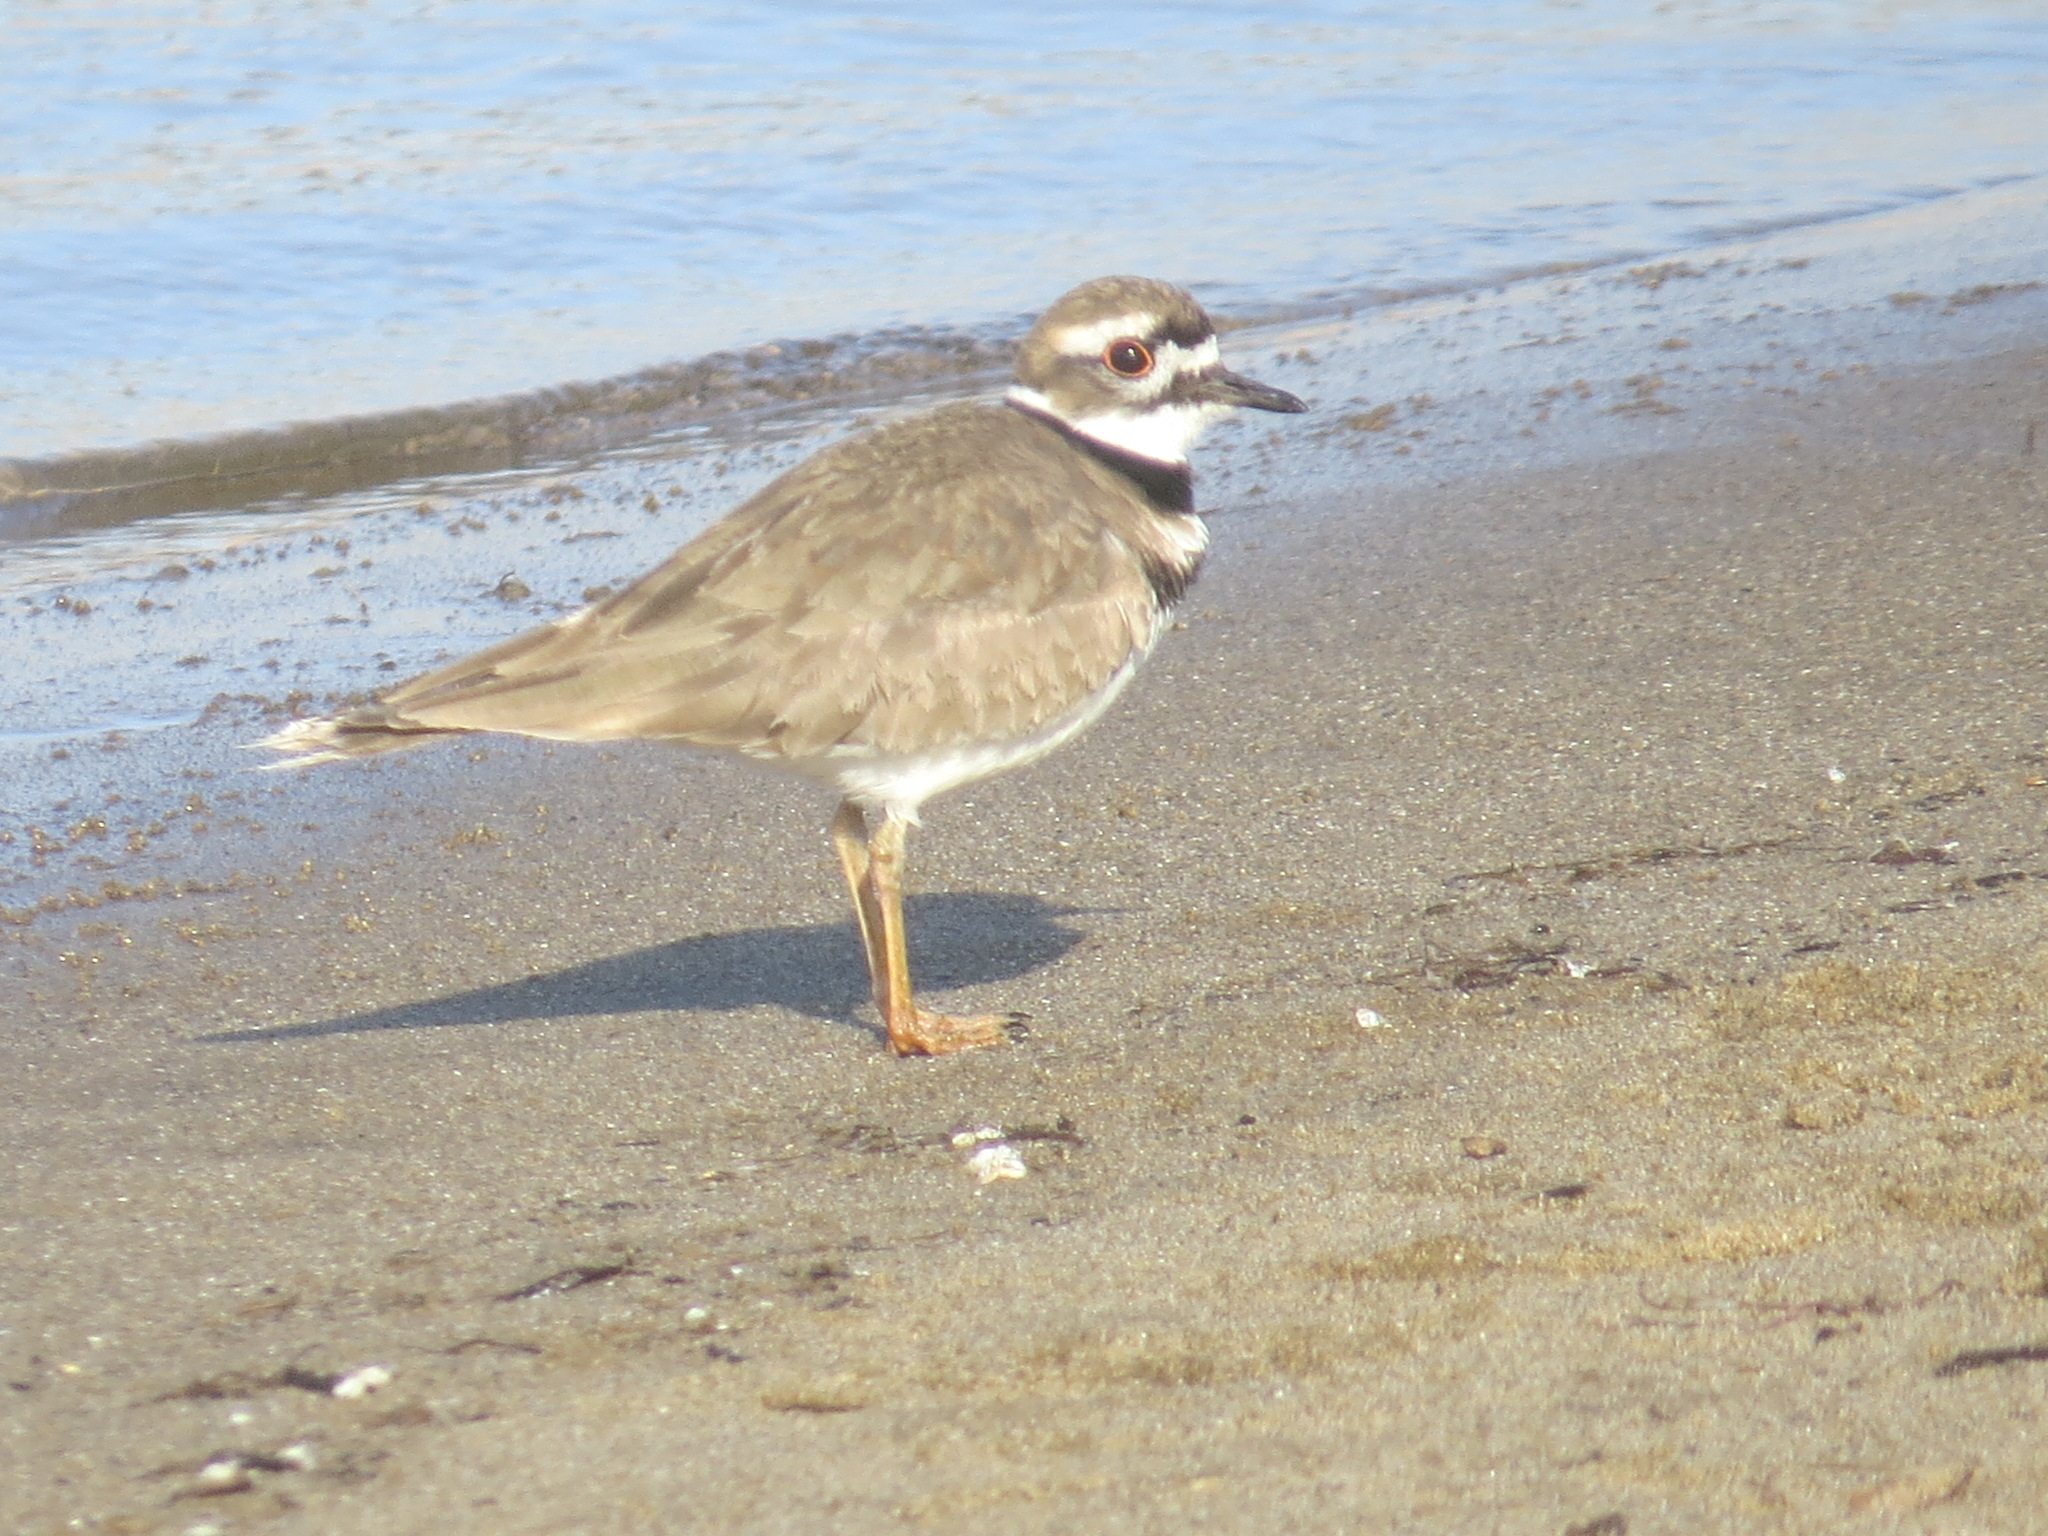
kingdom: Animalia
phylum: Chordata
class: Aves
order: Charadriiformes
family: Charadriidae
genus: Charadrius
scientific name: Charadrius vociferus
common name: Killdeer
